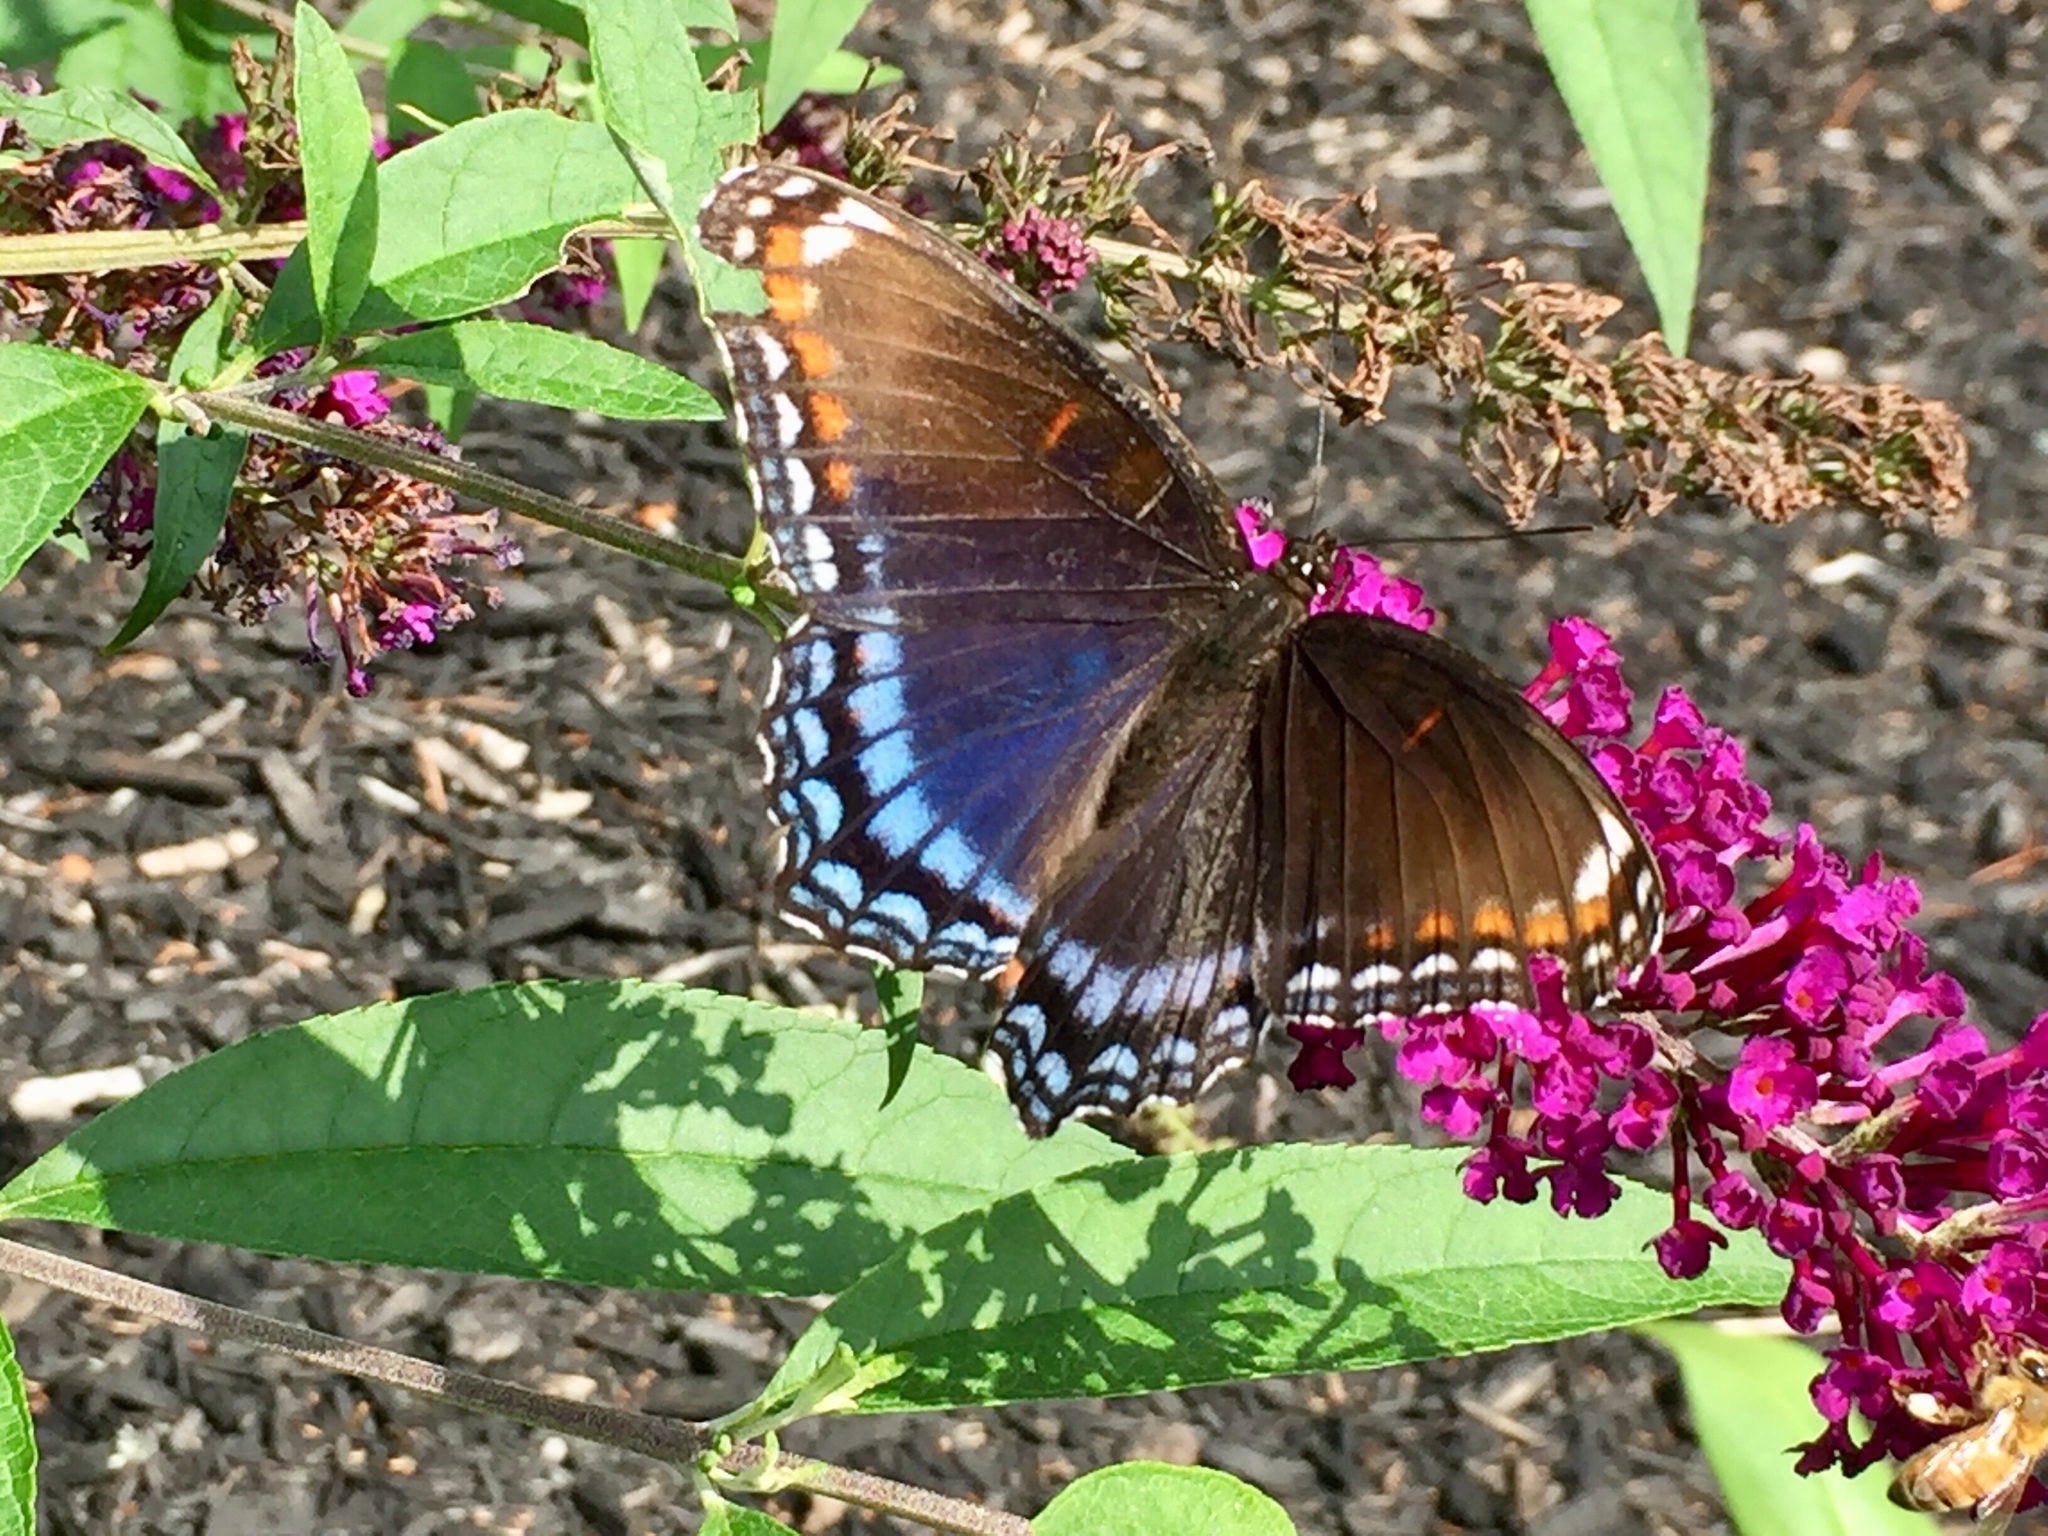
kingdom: Animalia
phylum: Arthropoda
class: Insecta
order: Lepidoptera
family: Nymphalidae
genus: Limenitis
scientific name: Limenitis arthemis
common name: Red-spotted admiral
